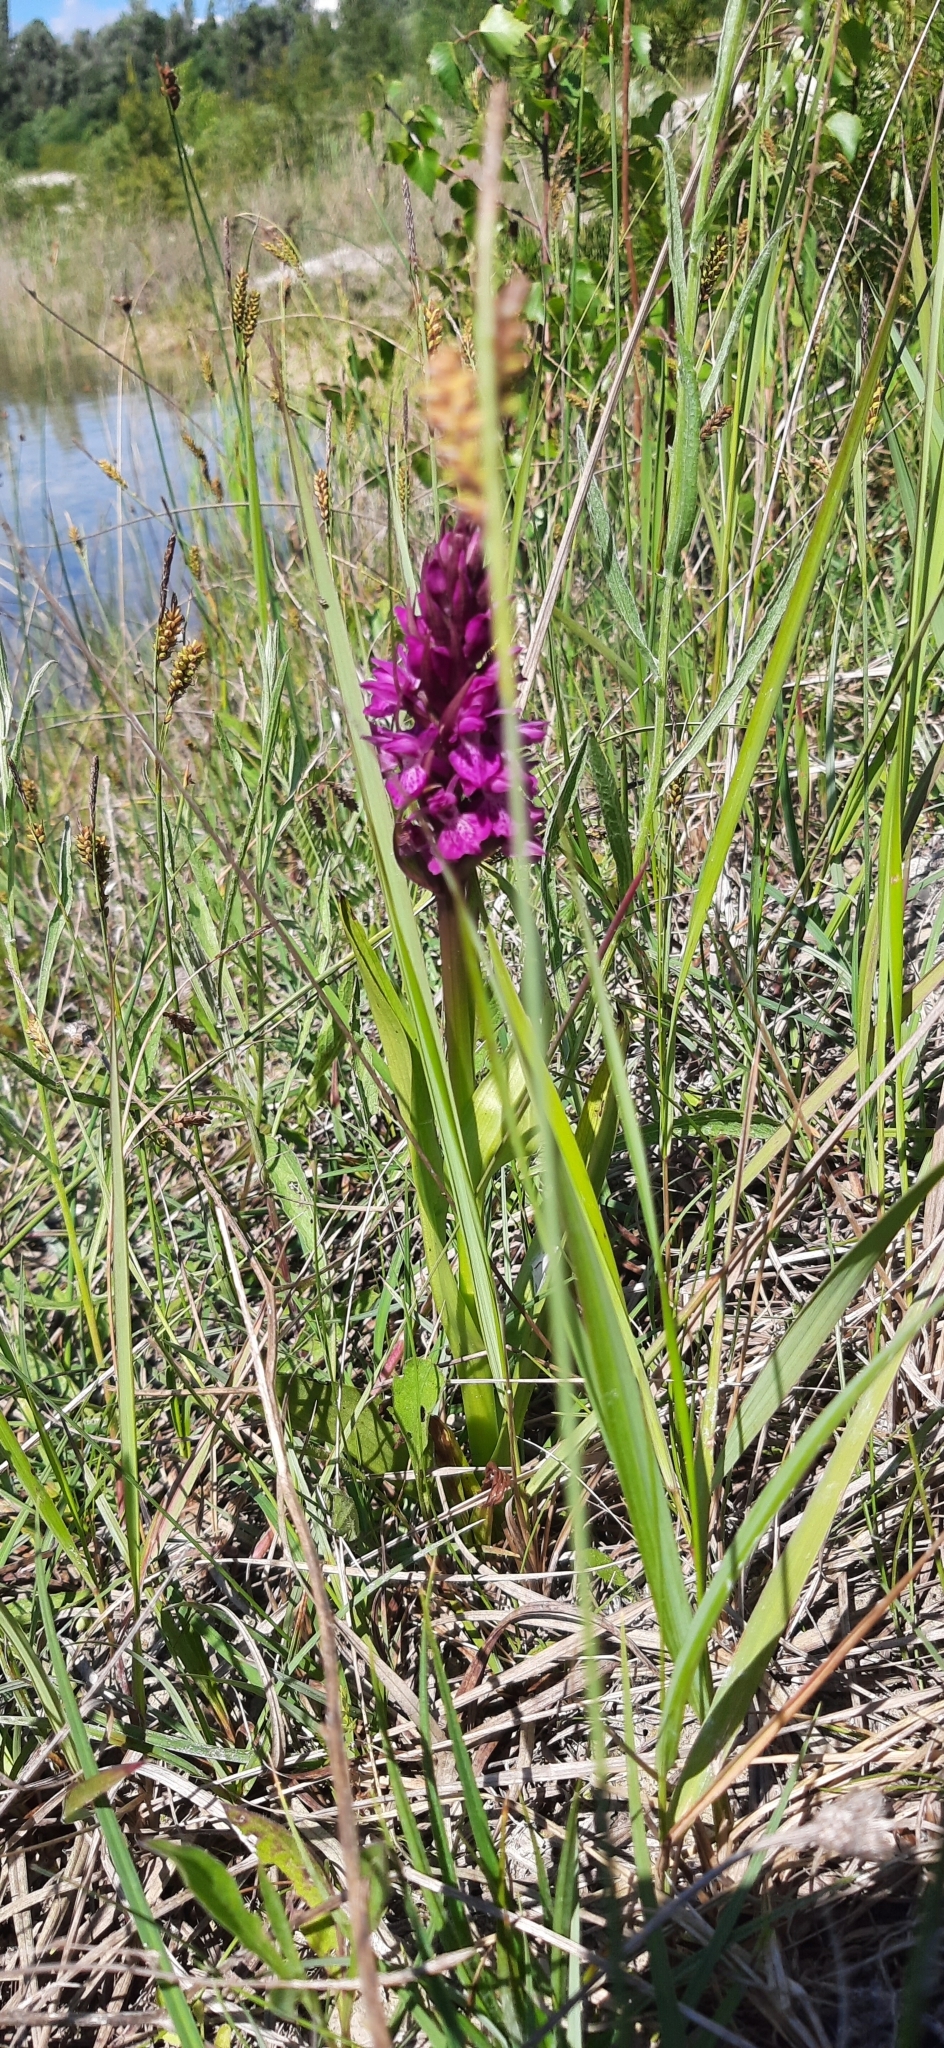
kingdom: Plantae
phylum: Tracheophyta
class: Liliopsida
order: Asparagales
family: Orchidaceae
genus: Dactylorhiza
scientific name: Dactylorhiza incarnata
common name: Early marsh-orchid
